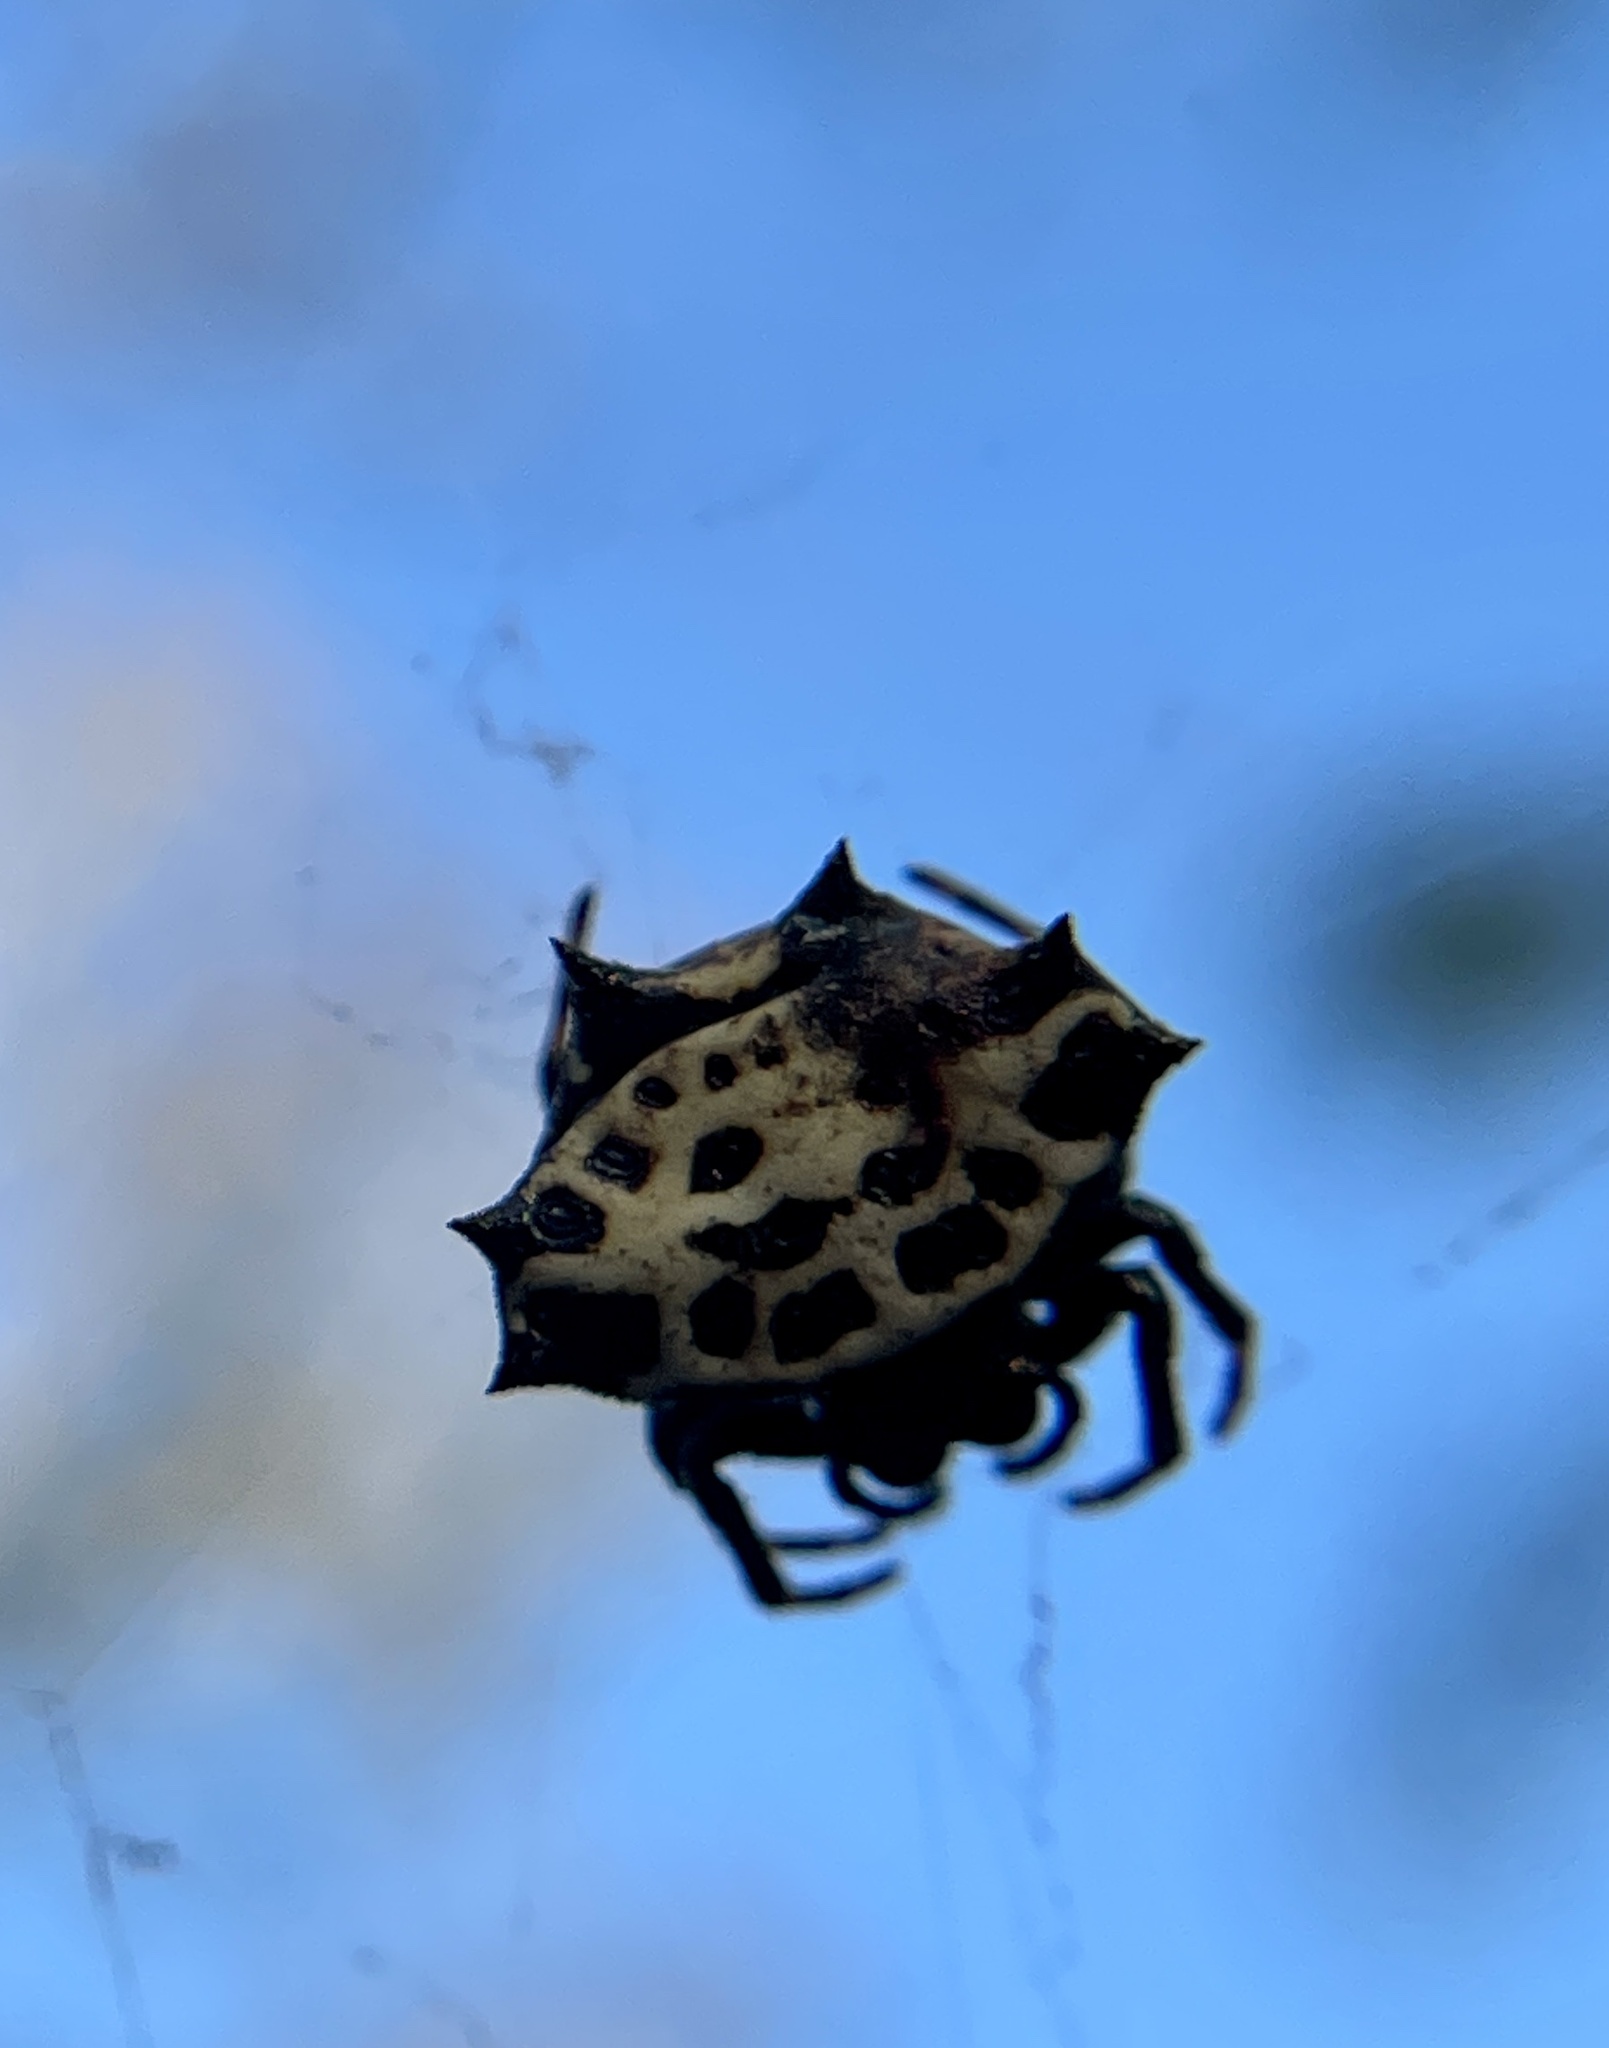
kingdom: Animalia
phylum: Arthropoda
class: Arachnida
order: Araneae
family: Araneidae
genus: Gasteracantha
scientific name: Gasteracantha cancriformis
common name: Orb weavers
